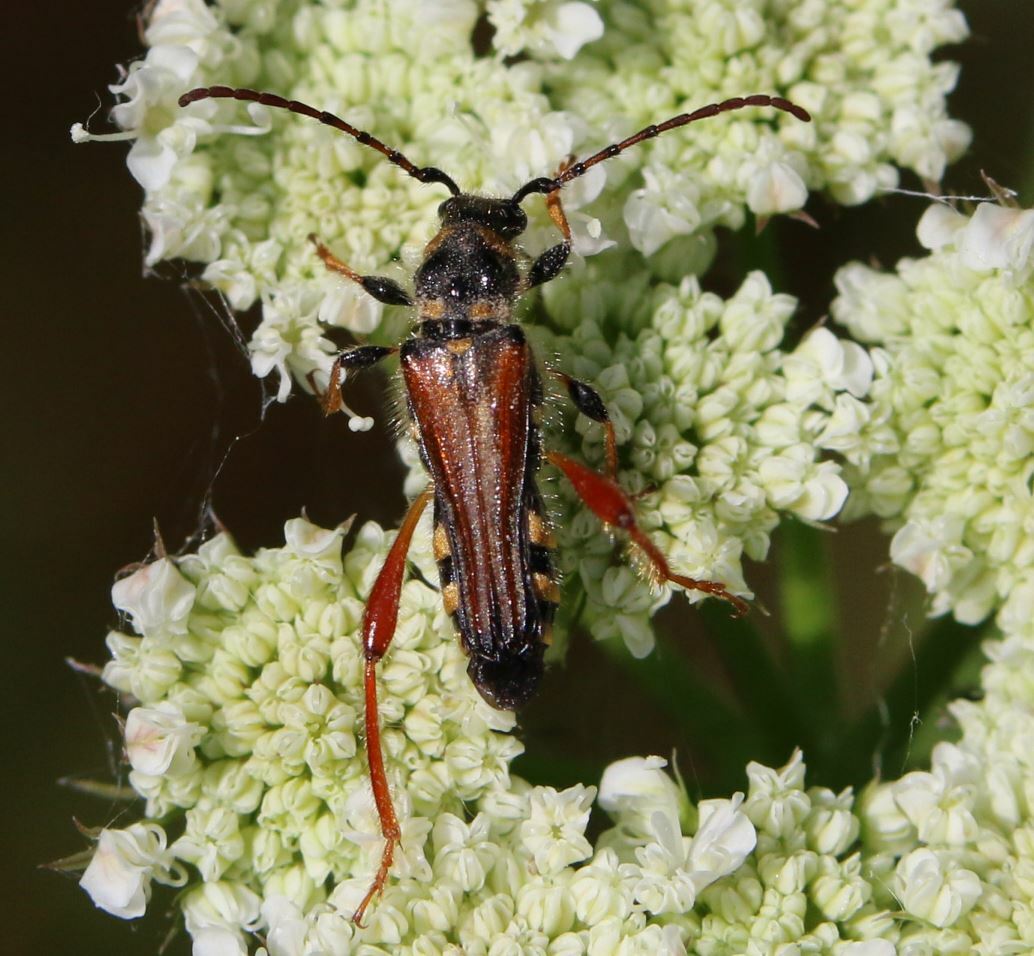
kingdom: Animalia
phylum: Arthropoda
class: Insecta
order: Coleoptera
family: Cerambycidae
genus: Stenopterus
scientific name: Stenopterus rufus
